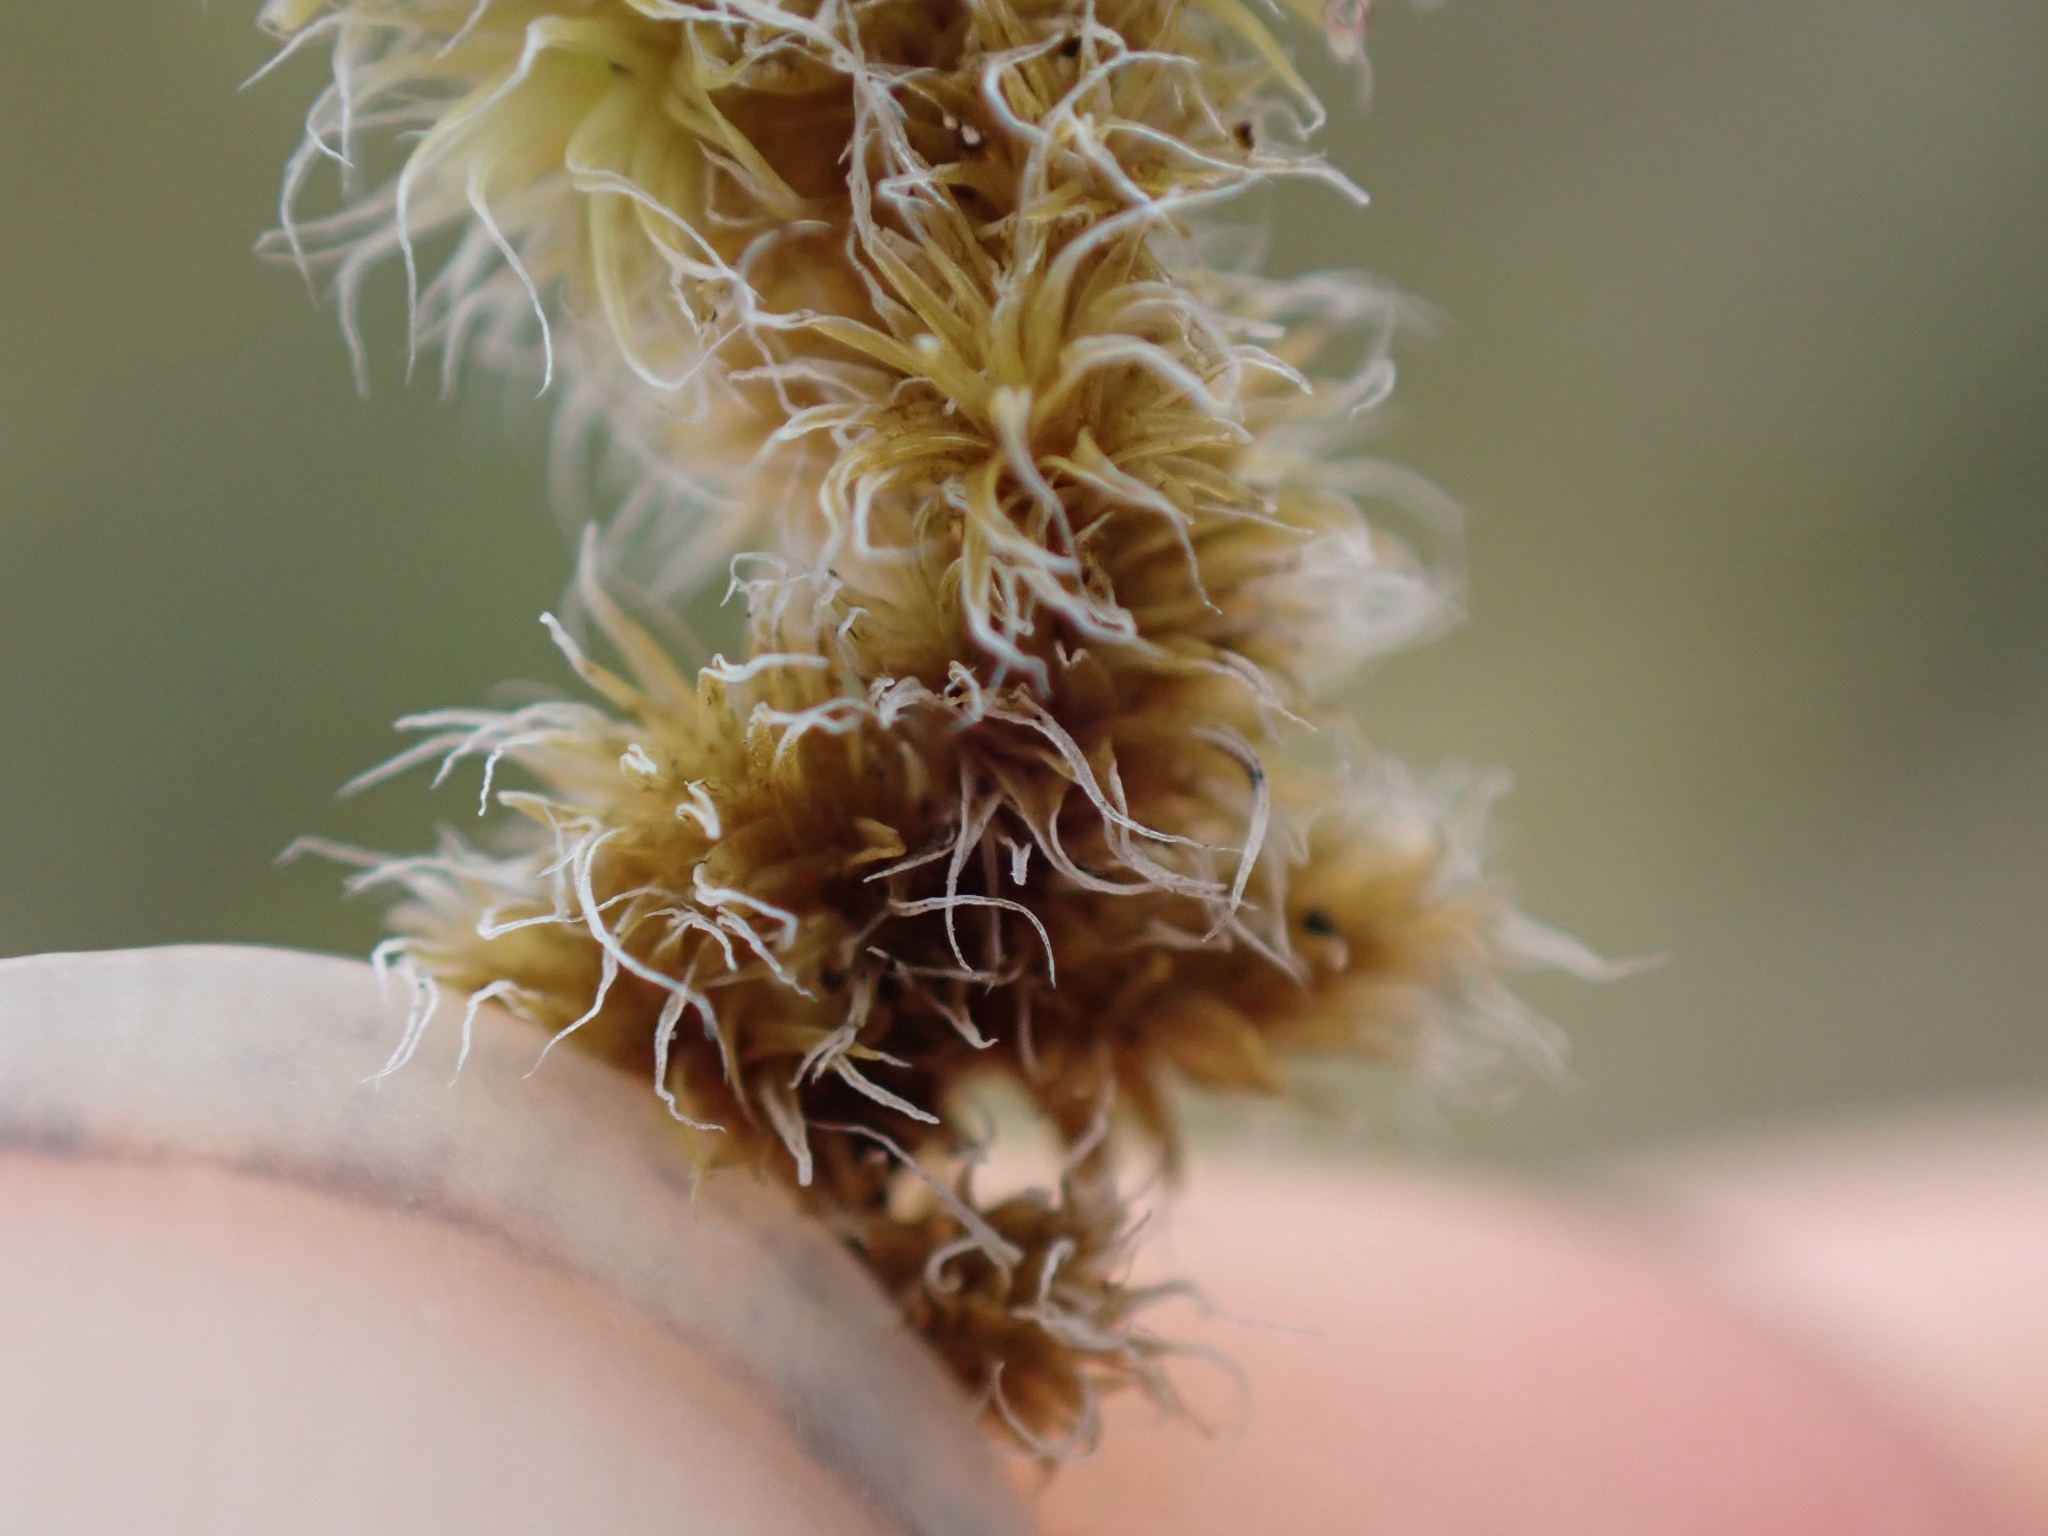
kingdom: Plantae
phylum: Bryophyta
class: Bryopsida
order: Grimmiales
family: Grimmiaceae
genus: Niphotrichum
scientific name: Niphotrichum elongatum
